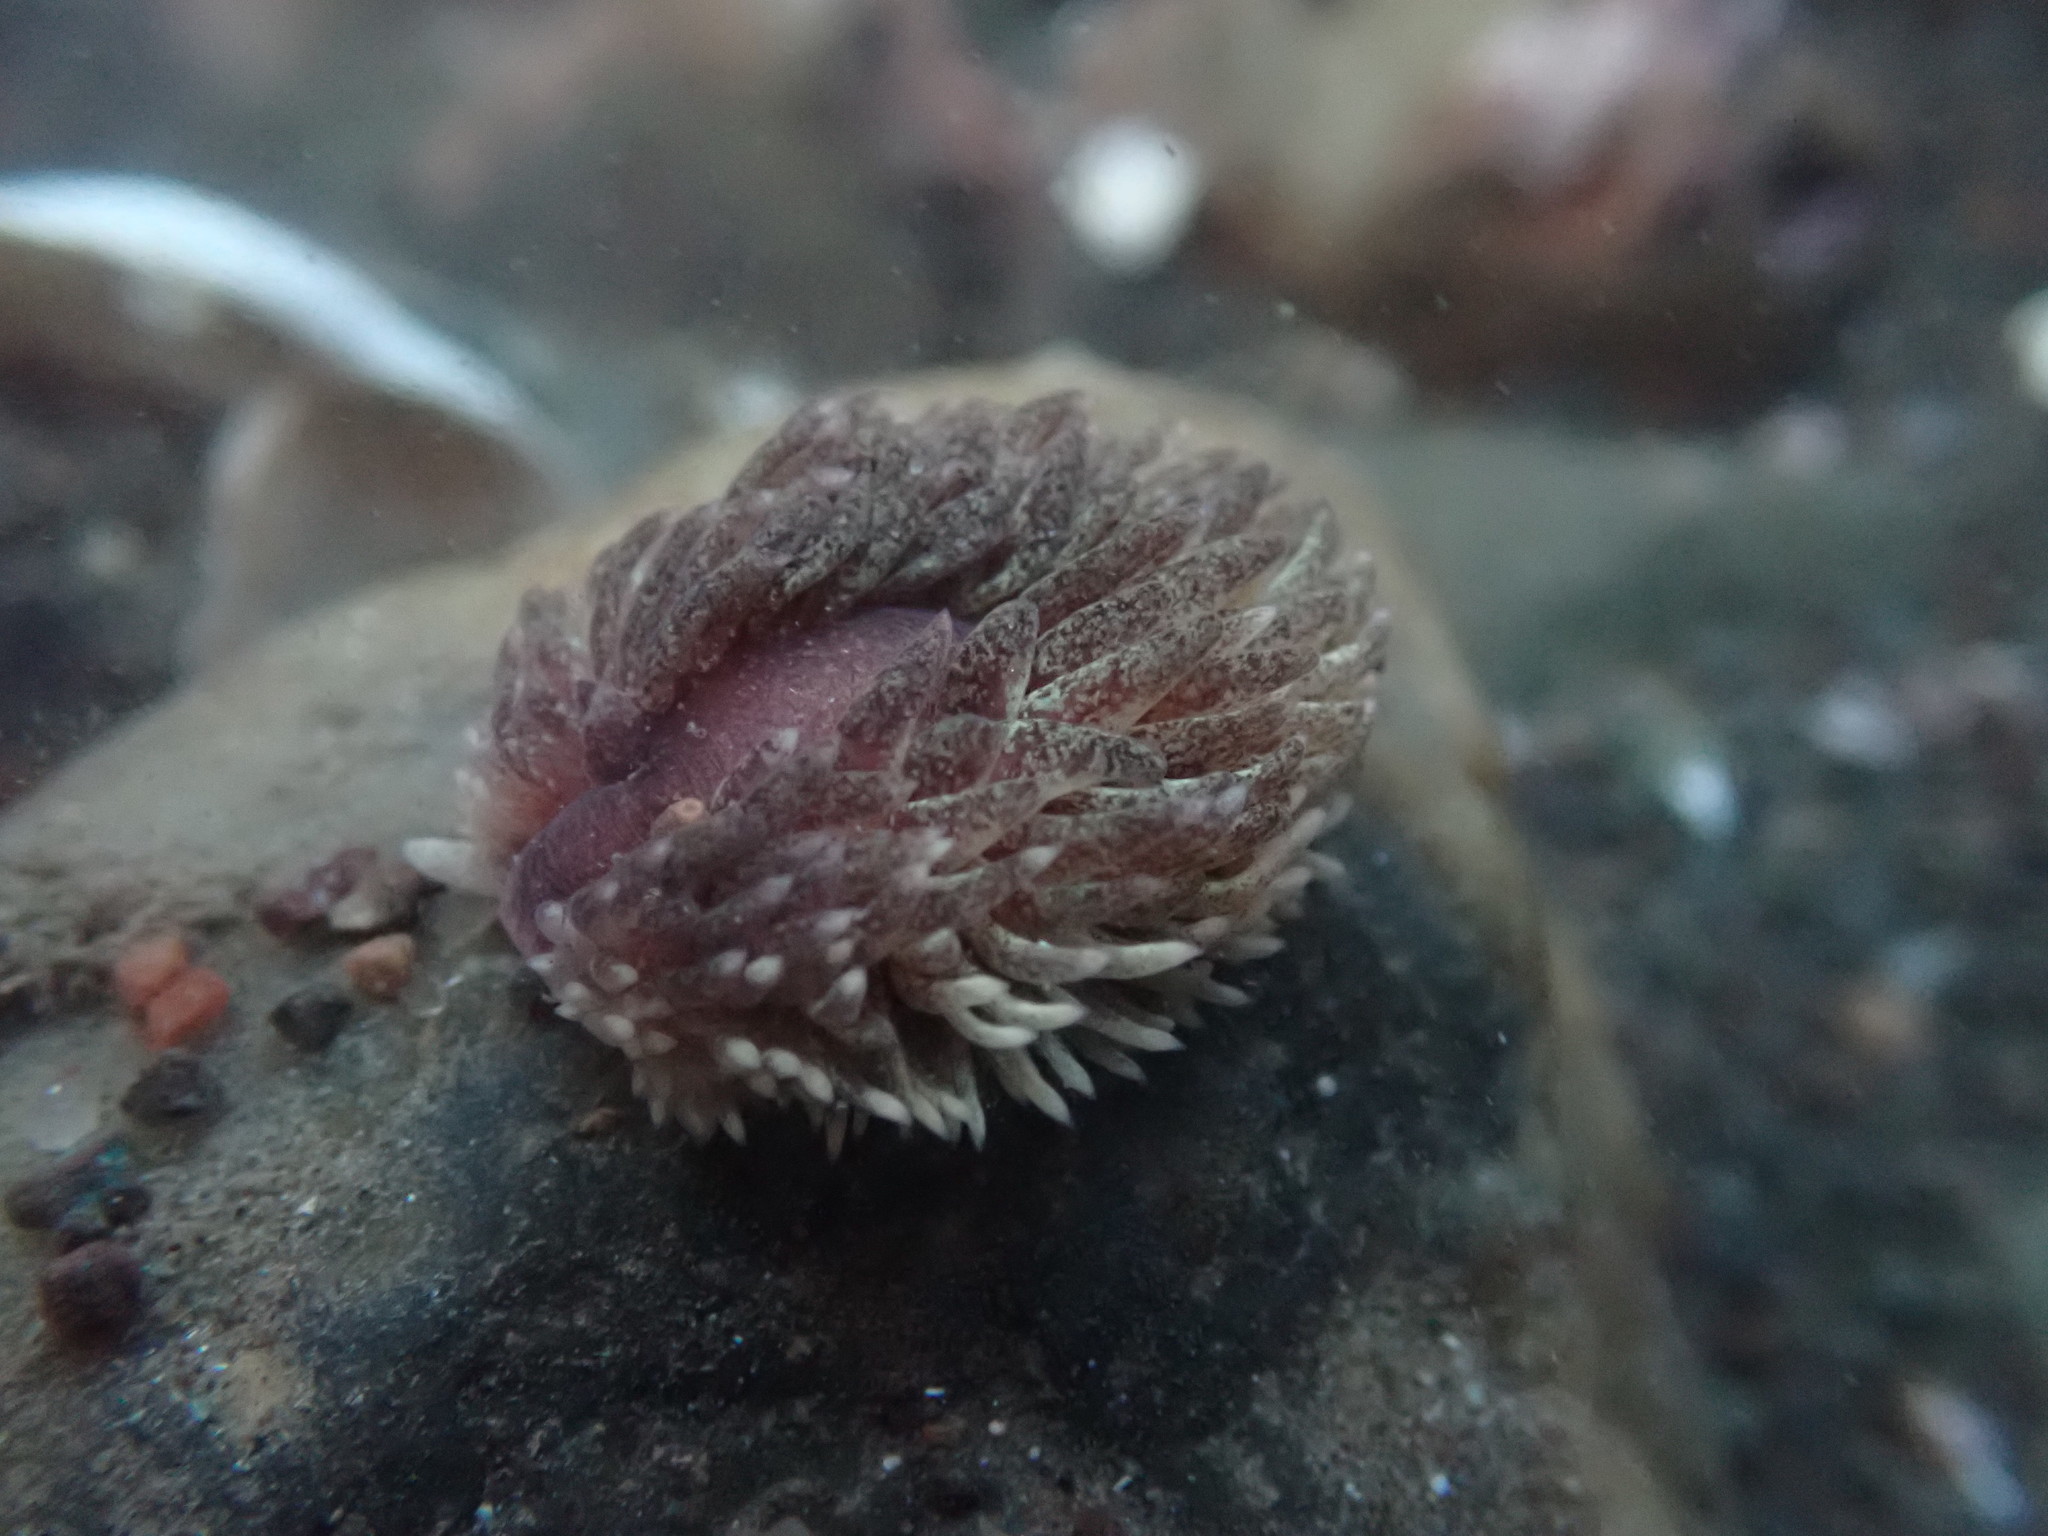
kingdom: Animalia
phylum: Mollusca
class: Gastropoda
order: Nudibranchia
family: Aeolidiidae
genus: Aeolidia
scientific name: Aeolidia papillosa
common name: Common grey sea slug
